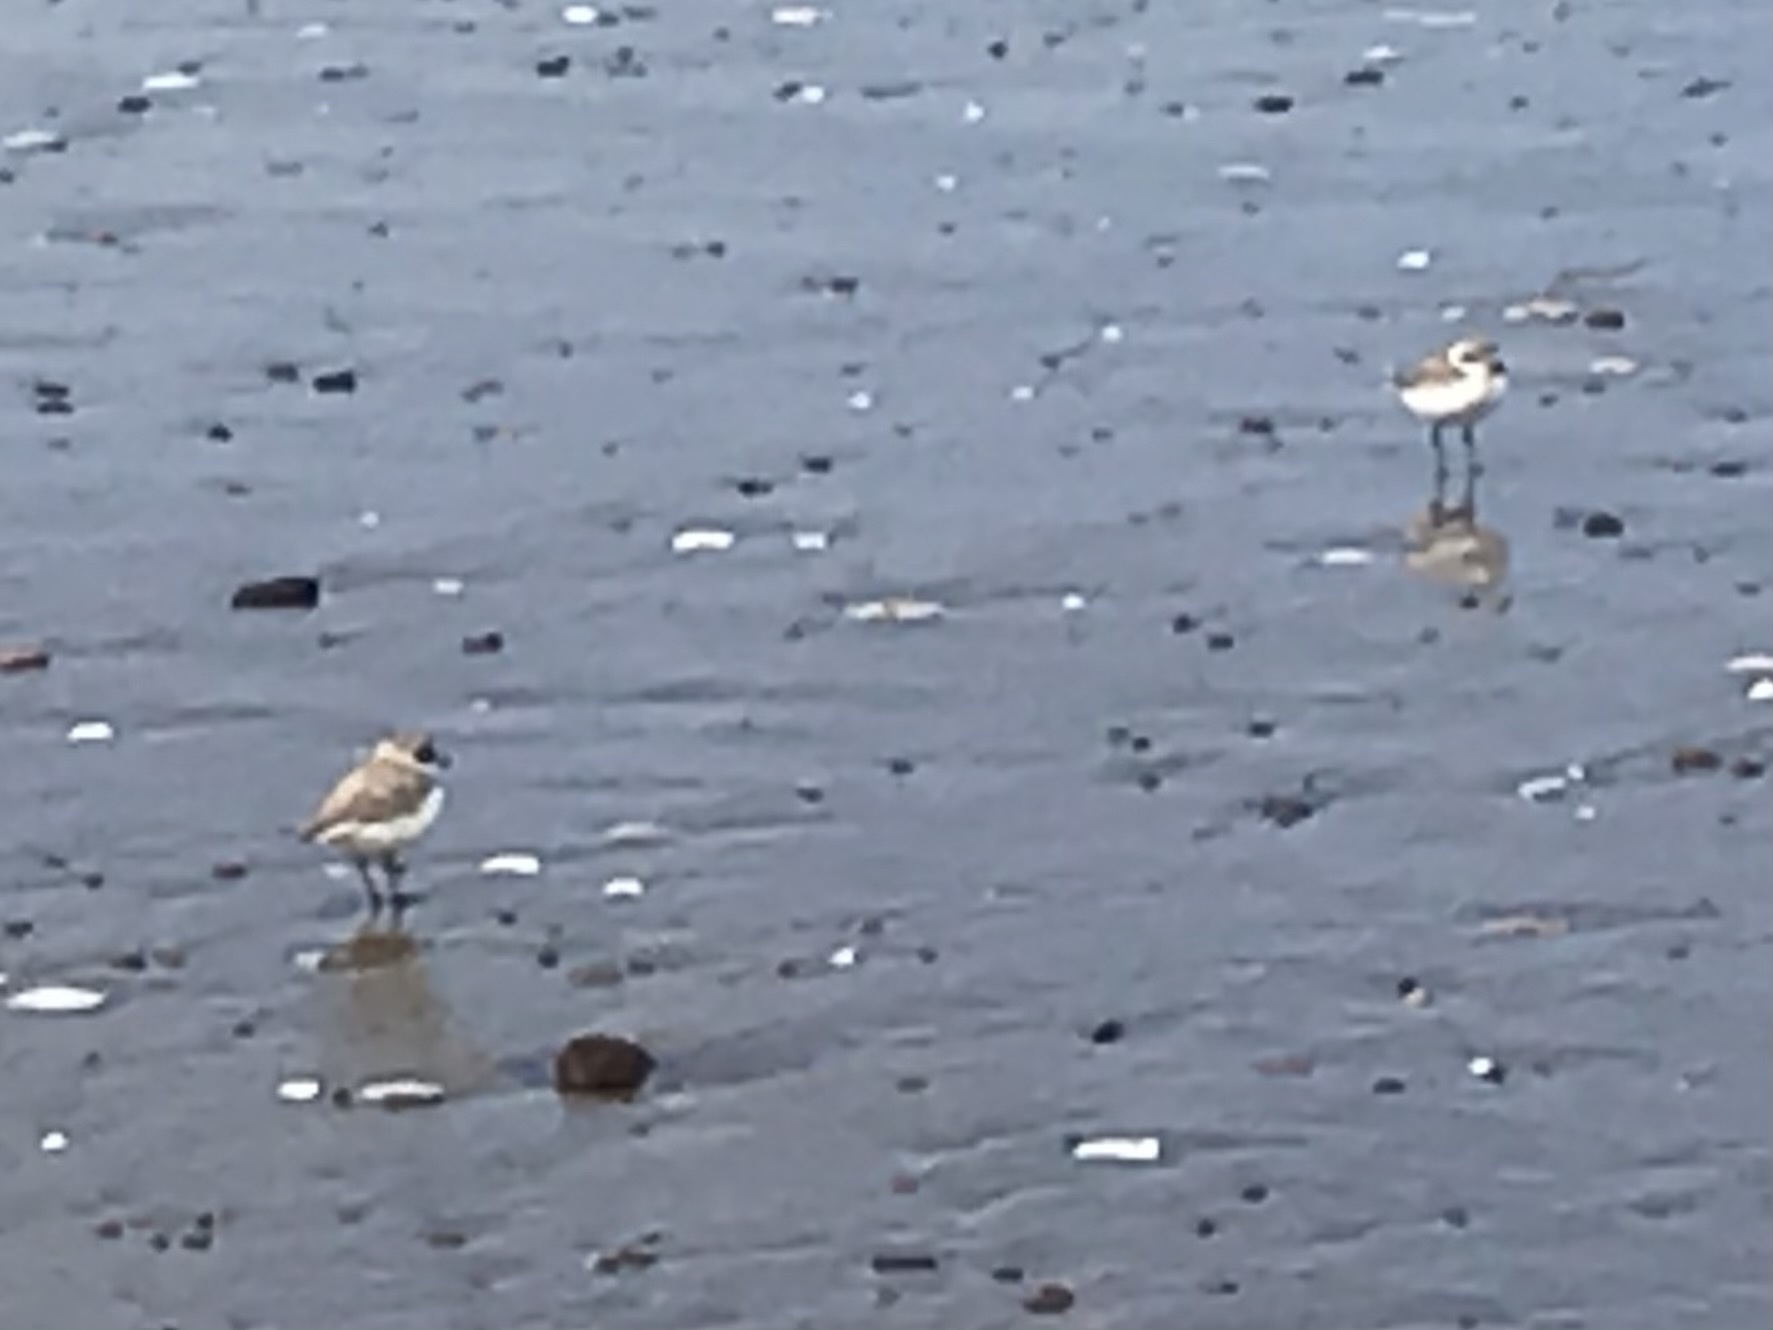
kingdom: Animalia
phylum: Chordata
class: Aves
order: Charadriiformes
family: Charadriidae
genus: Anarhynchus
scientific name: Anarhynchus
